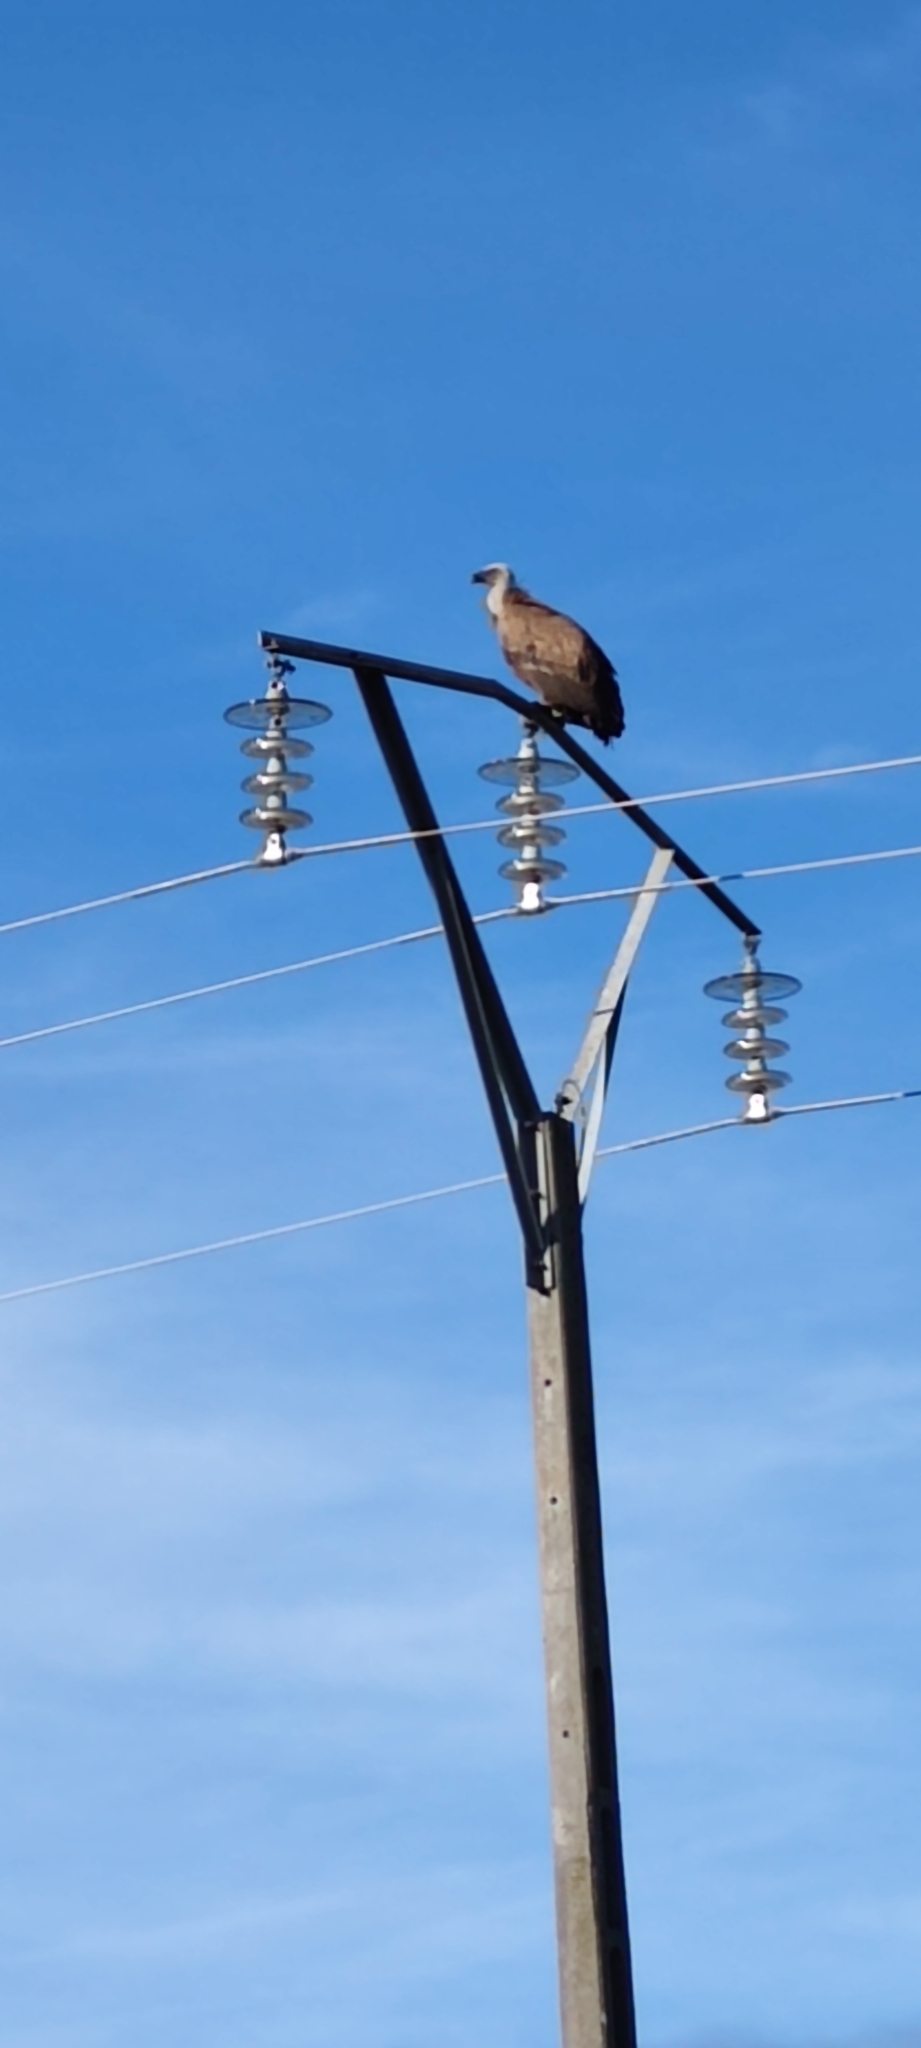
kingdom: Animalia
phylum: Chordata
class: Aves
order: Accipitriformes
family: Accipitridae
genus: Gyps
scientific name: Gyps fulvus
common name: Griffon vulture
